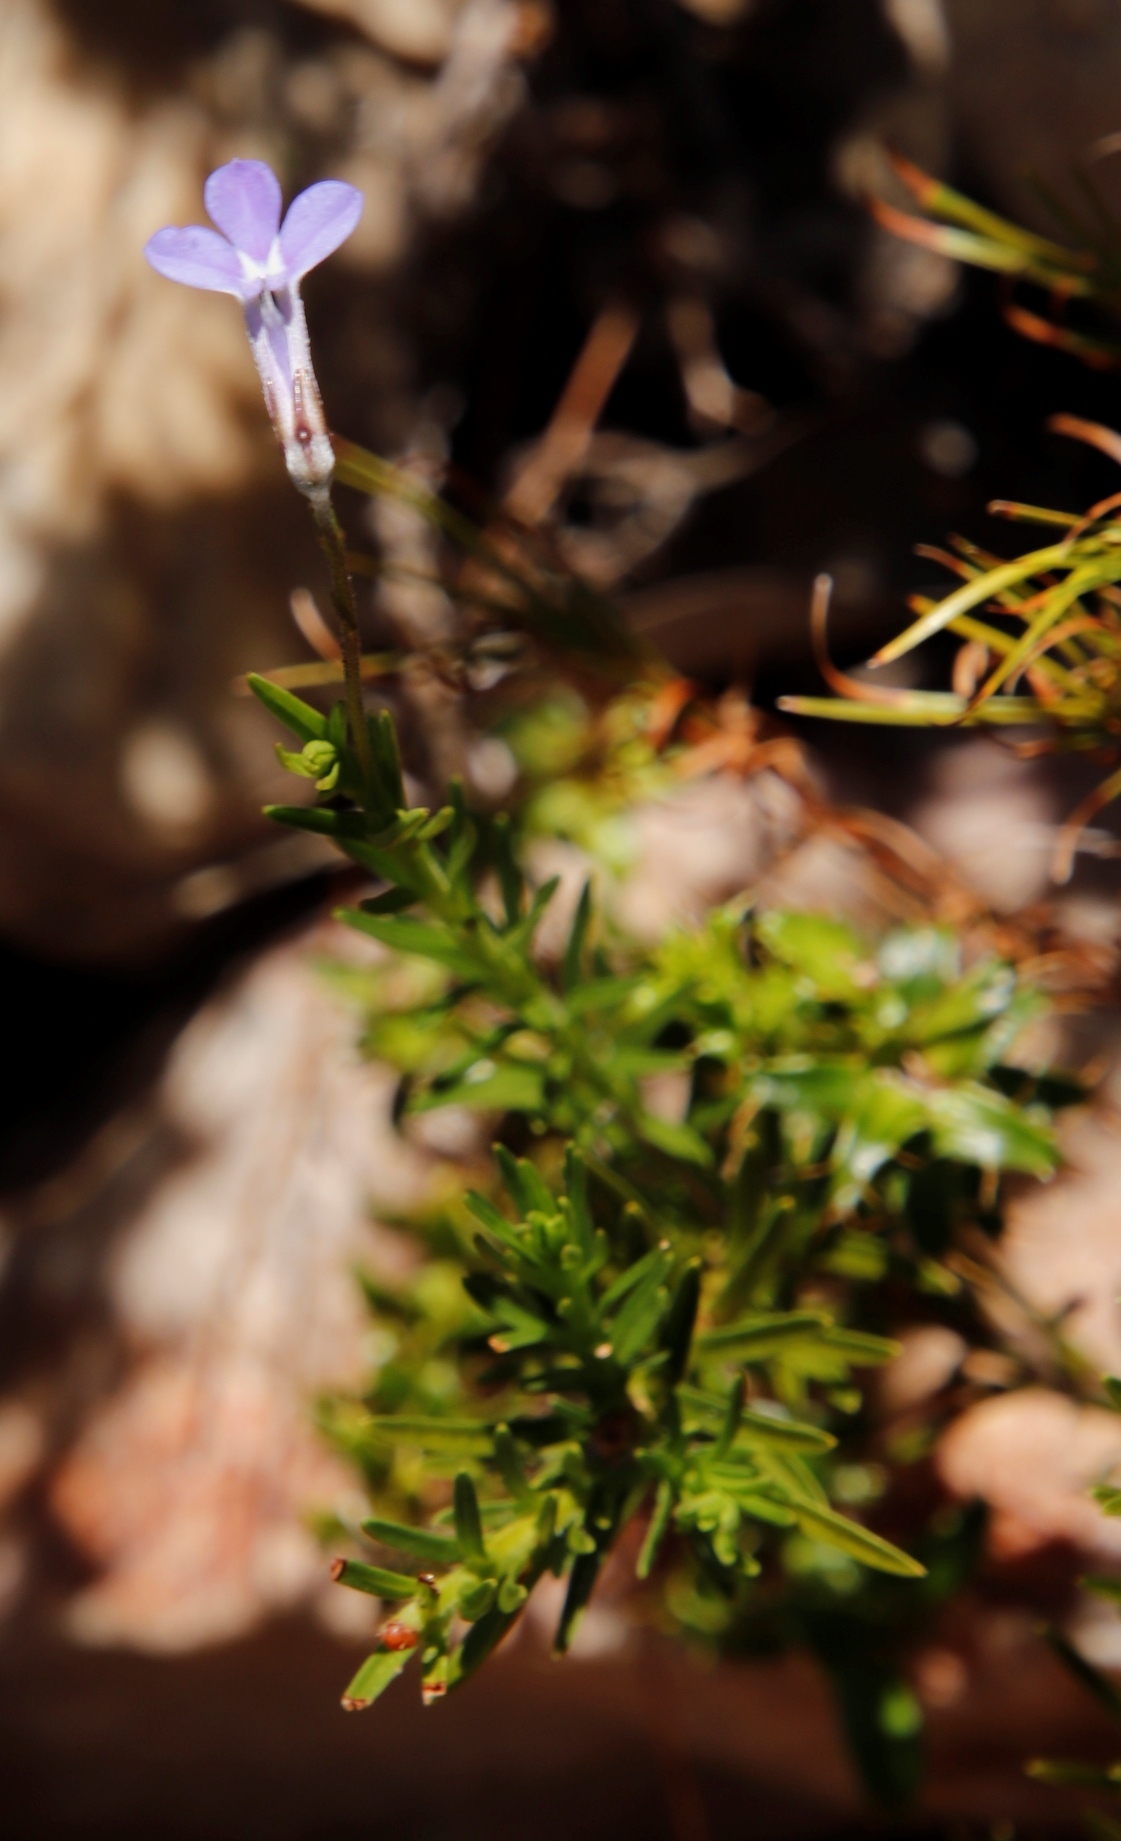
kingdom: Plantae
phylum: Tracheophyta
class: Magnoliopsida
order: Asterales
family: Campanulaceae
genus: Lobelia
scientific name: Lobelia pinifolia
